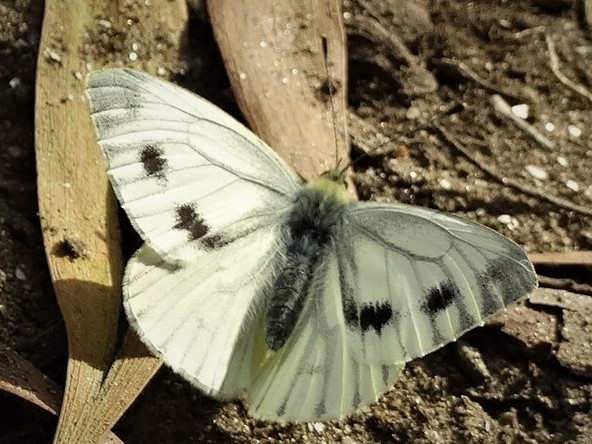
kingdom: Animalia
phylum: Arthropoda
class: Insecta
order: Lepidoptera
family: Pieridae
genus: Pieris
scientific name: Pieris napi
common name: Green-veined white
